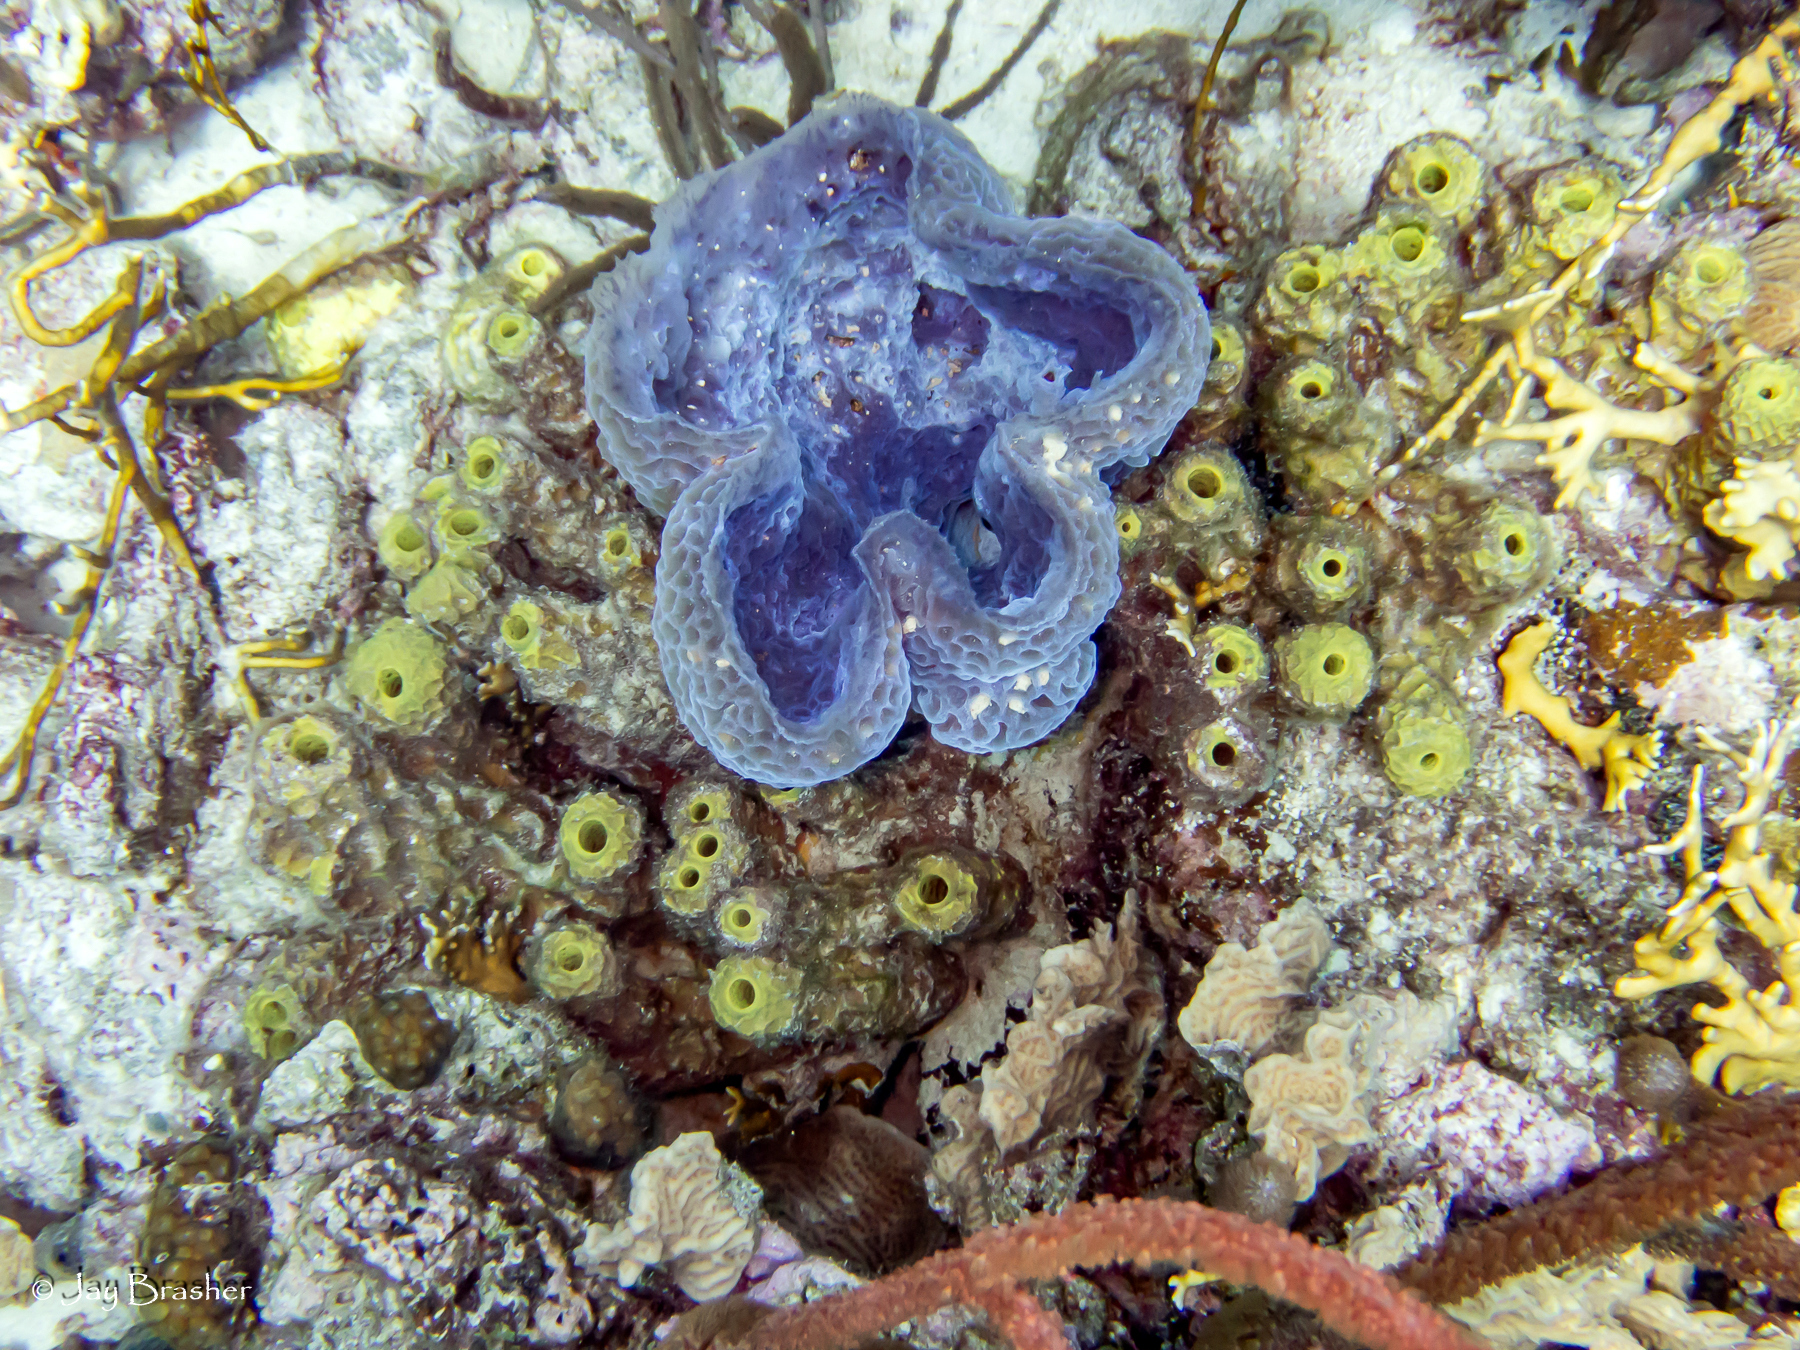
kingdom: Animalia
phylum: Porifera
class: Demospongiae
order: Haplosclerida
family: Callyspongiidae
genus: Callyspongia
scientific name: Callyspongia plicifera
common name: Azure vase sponge
